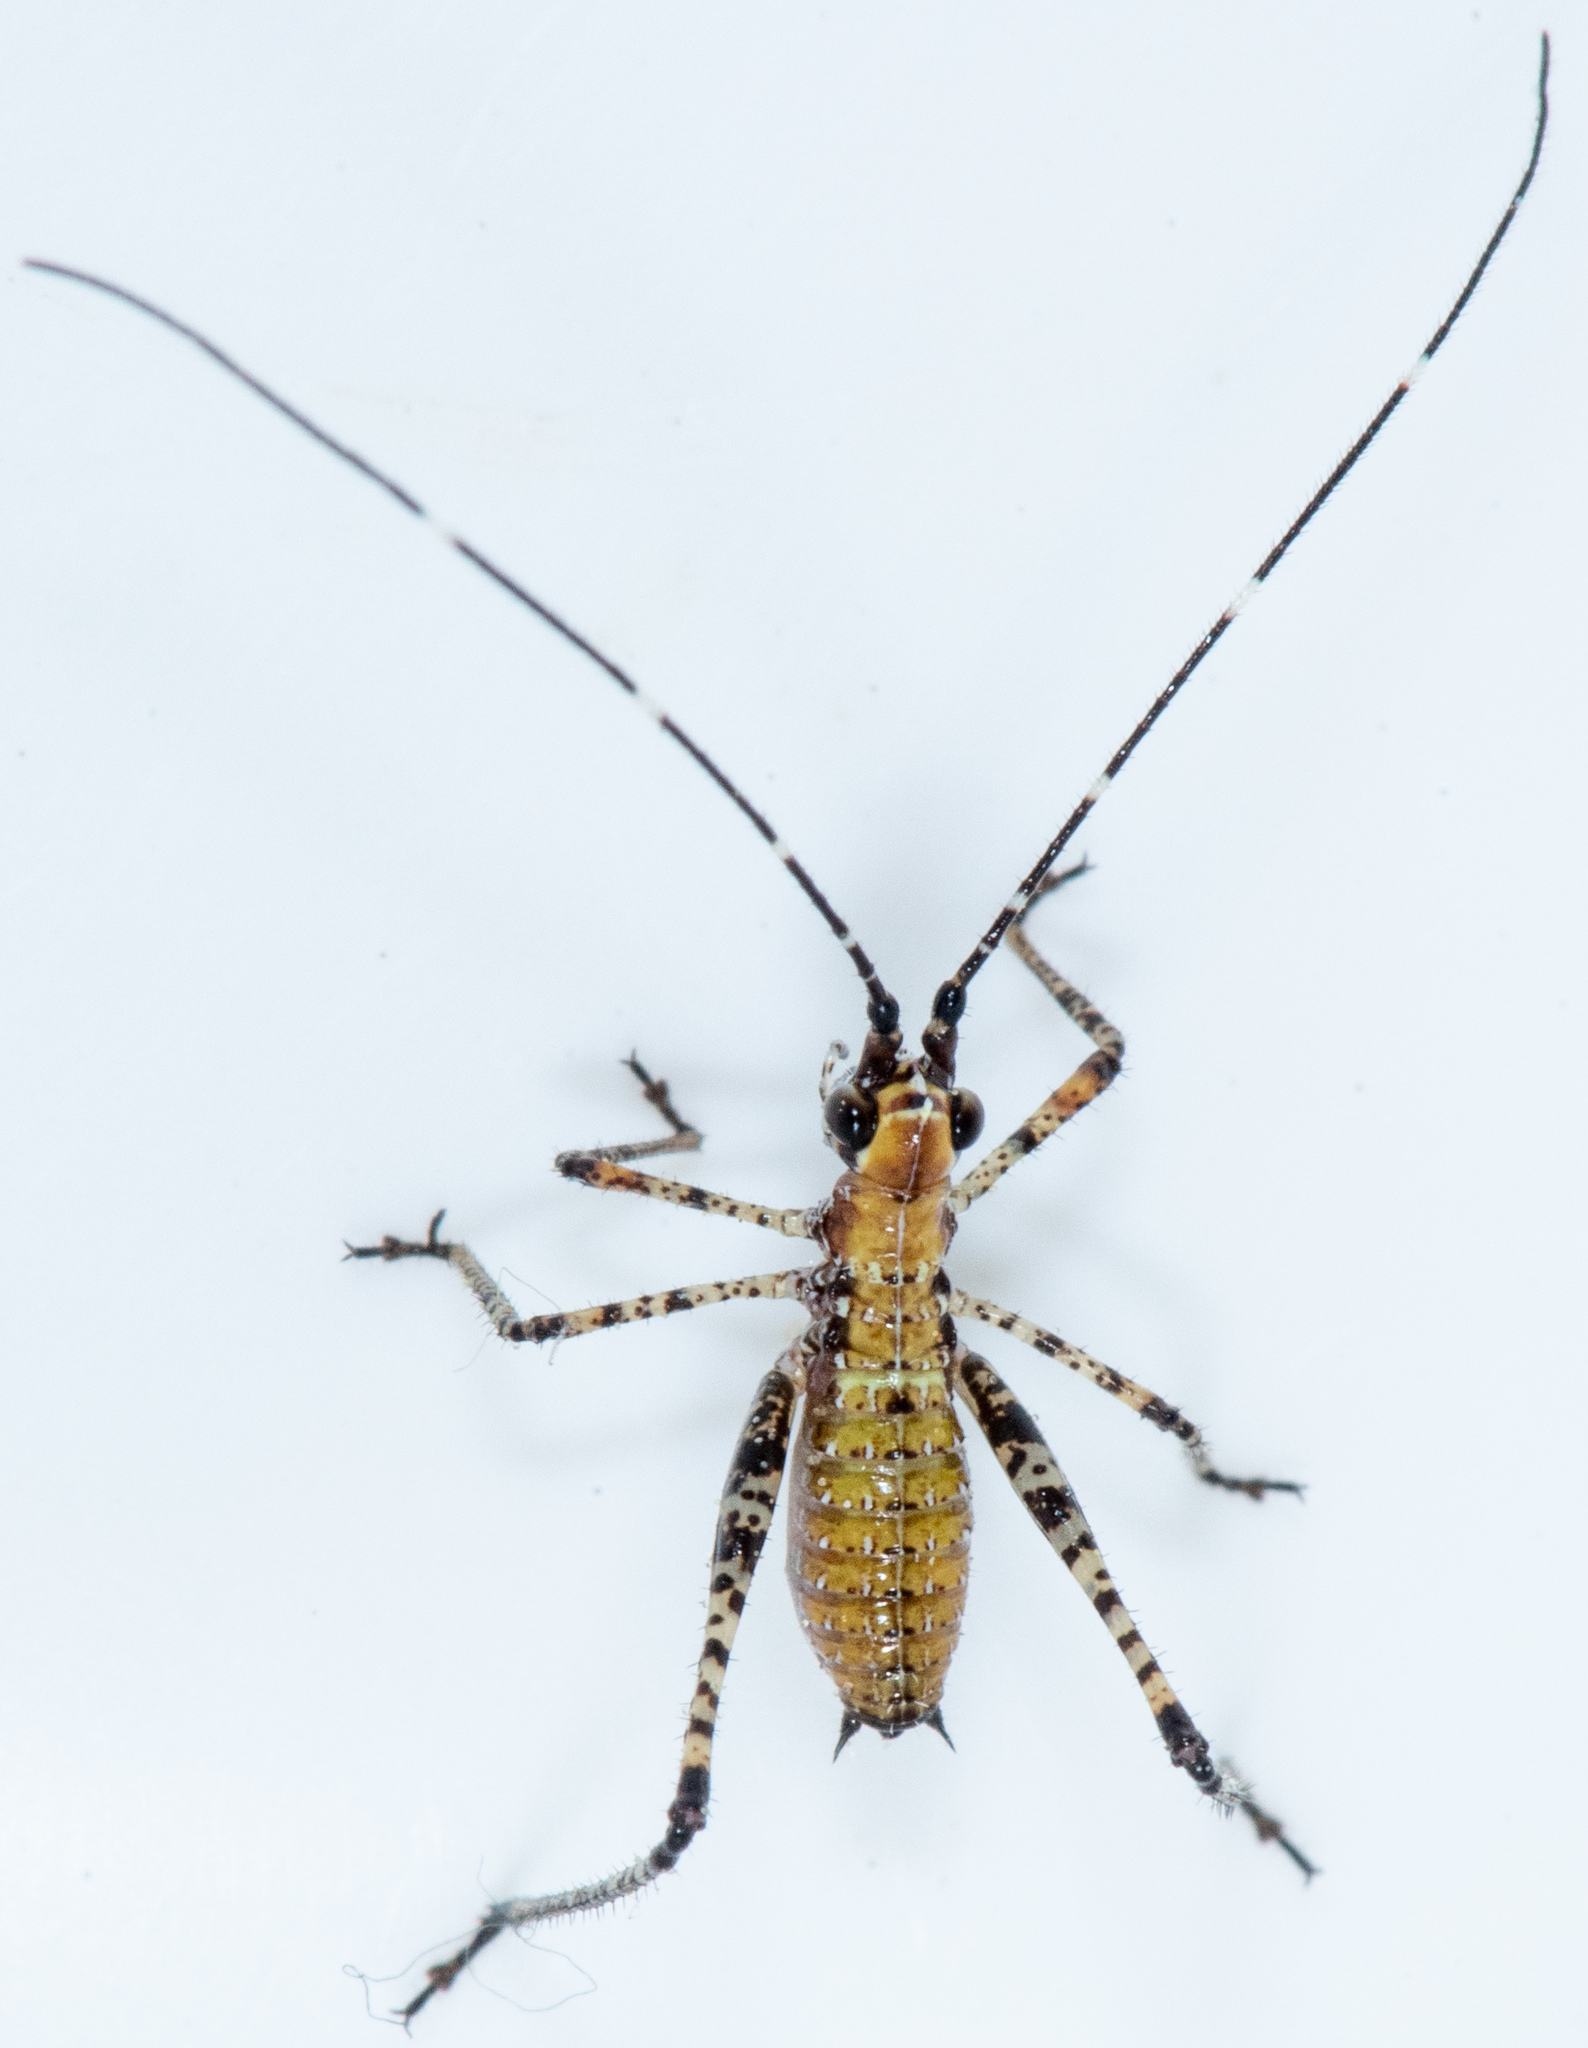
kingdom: Animalia
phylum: Arthropoda
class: Insecta
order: Orthoptera
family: Tettigoniidae
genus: Scudderia
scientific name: Scudderia furcata
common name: Fork-tailed bush katydid
